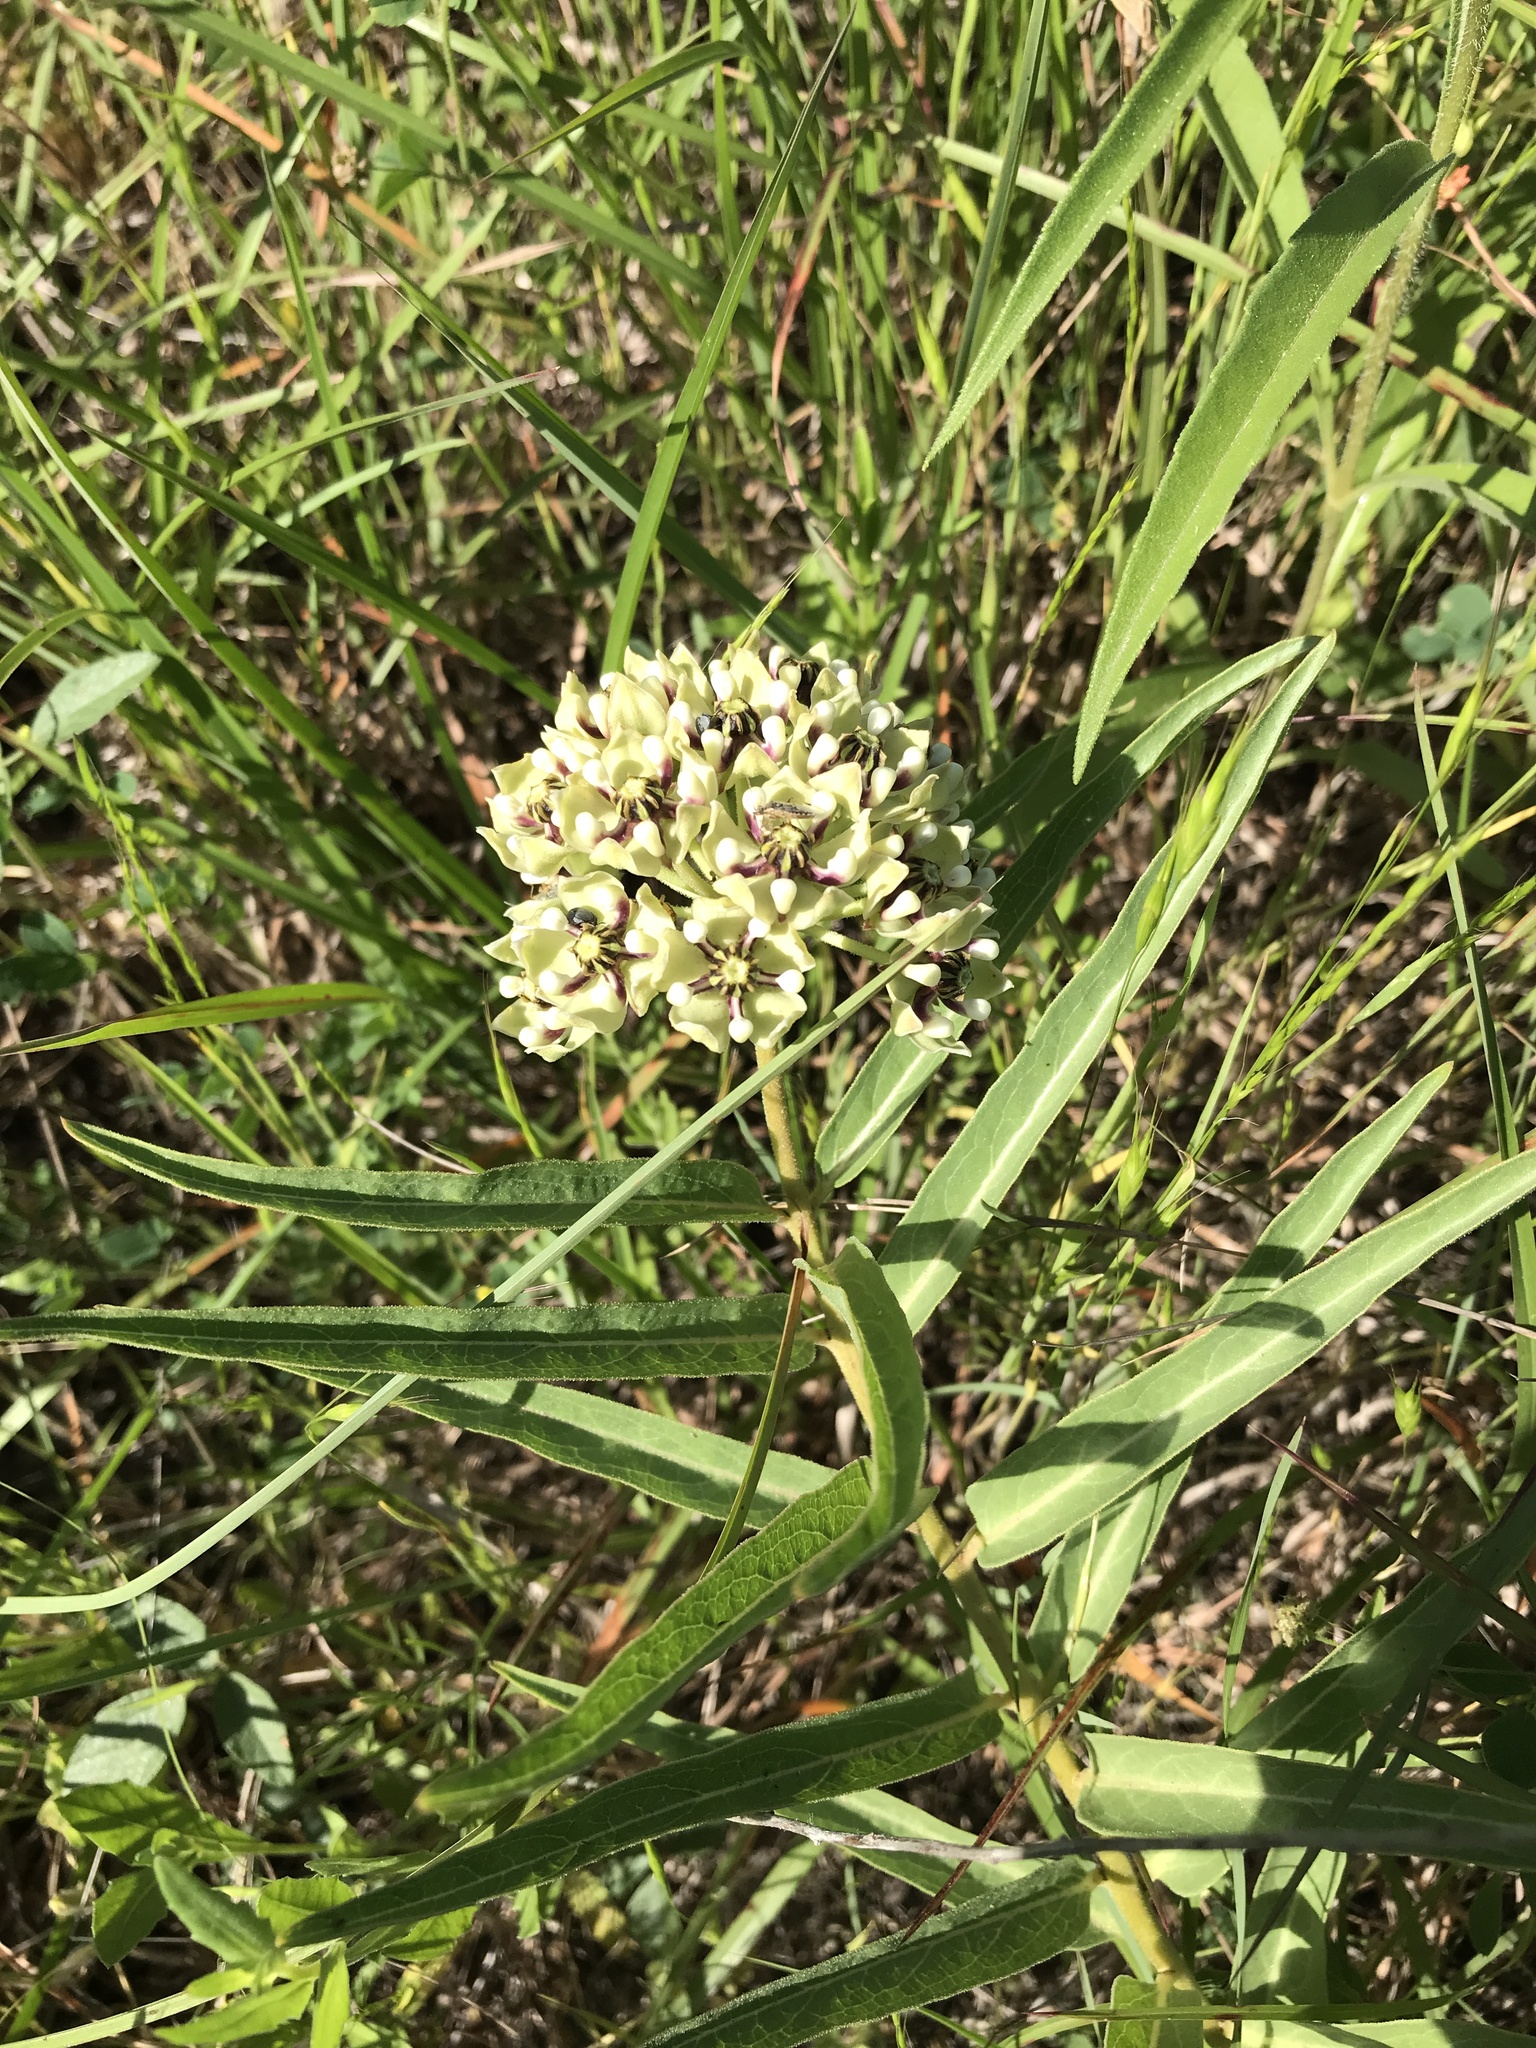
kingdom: Plantae
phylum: Tracheophyta
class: Magnoliopsida
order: Gentianales
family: Apocynaceae
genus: Asclepias
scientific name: Asclepias asperula
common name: Antelope horns
